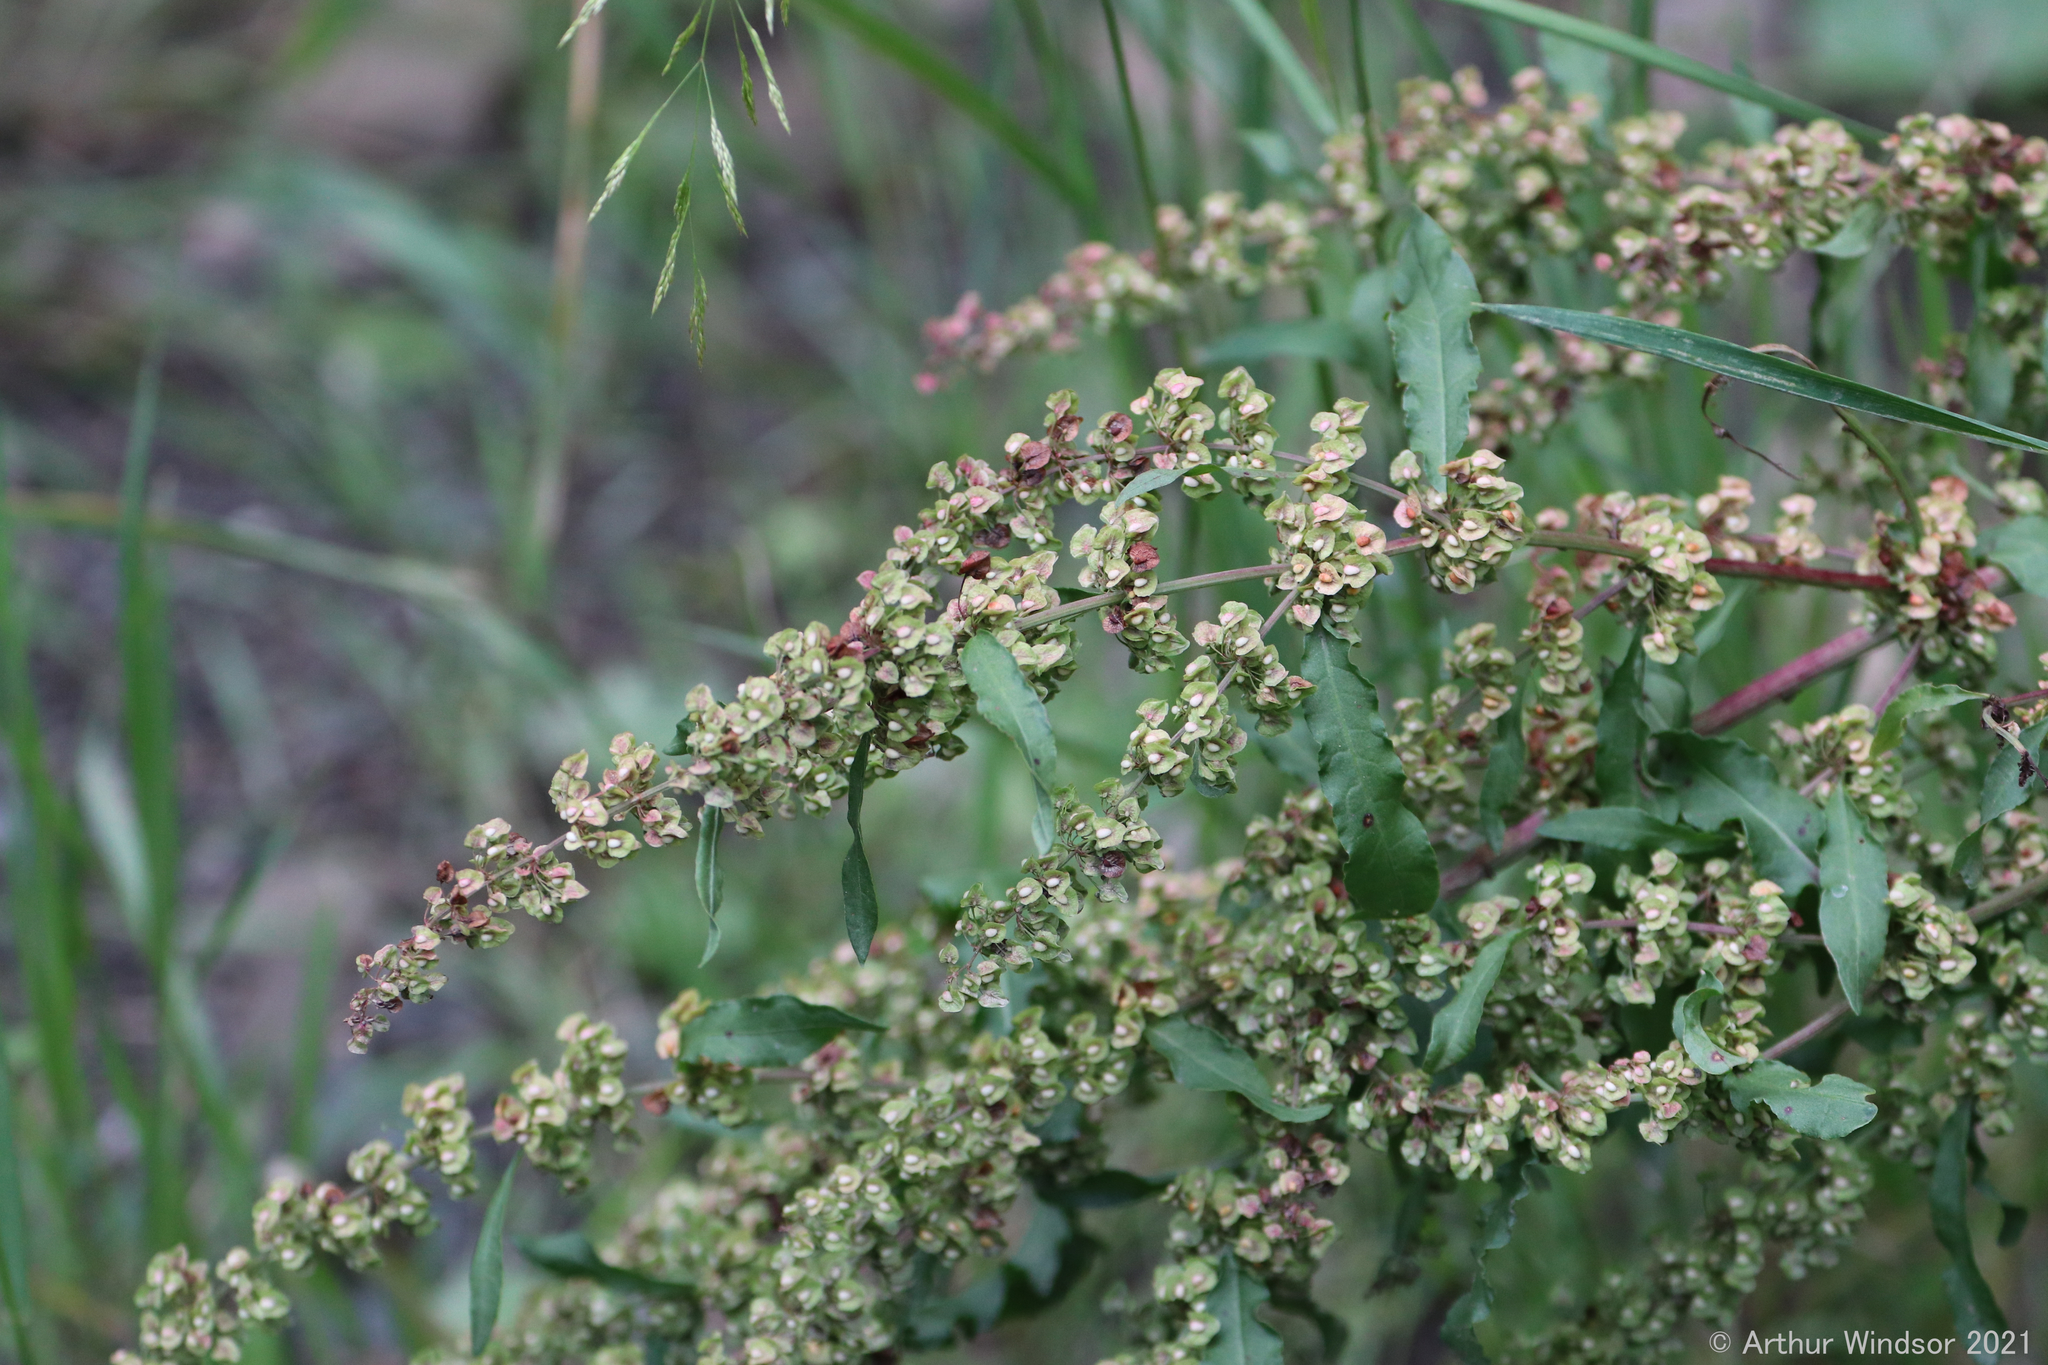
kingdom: Plantae
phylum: Tracheophyta
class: Magnoliopsida
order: Caryophyllales
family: Polygonaceae
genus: Rumex
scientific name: Rumex crispus
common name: Curled dock
